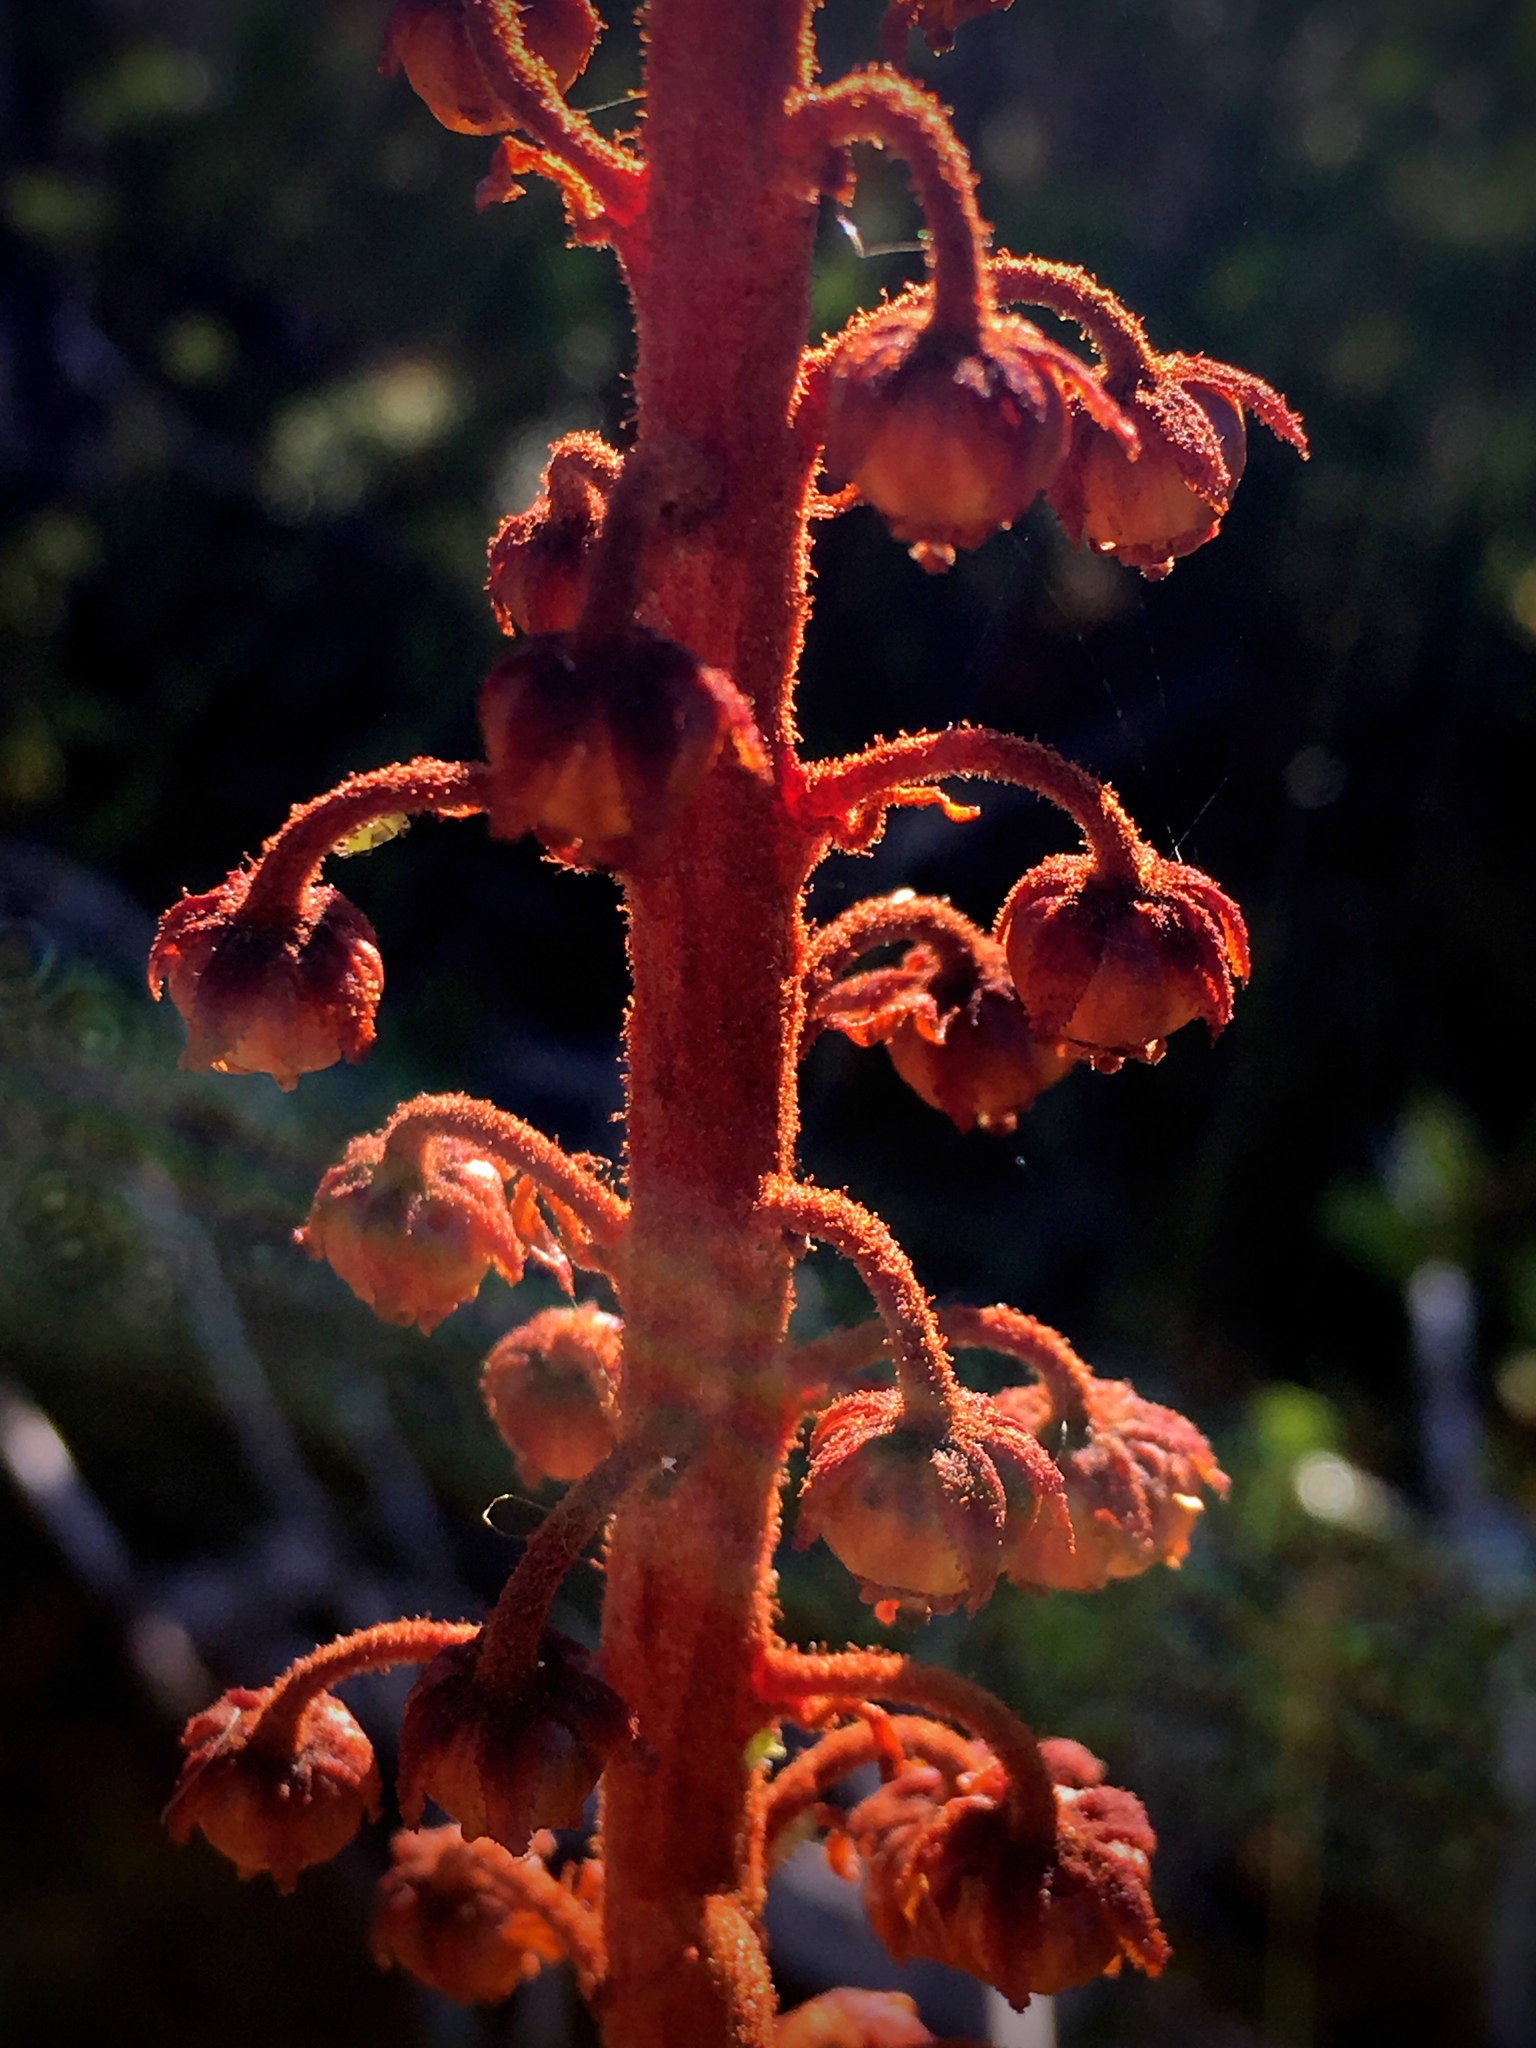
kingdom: Plantae
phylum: Tracheophyta
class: Magnoliopsida
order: Ericales
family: Ericaceae
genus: Pterospora
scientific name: Pterospora andromedea
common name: Giant bird's-nest
